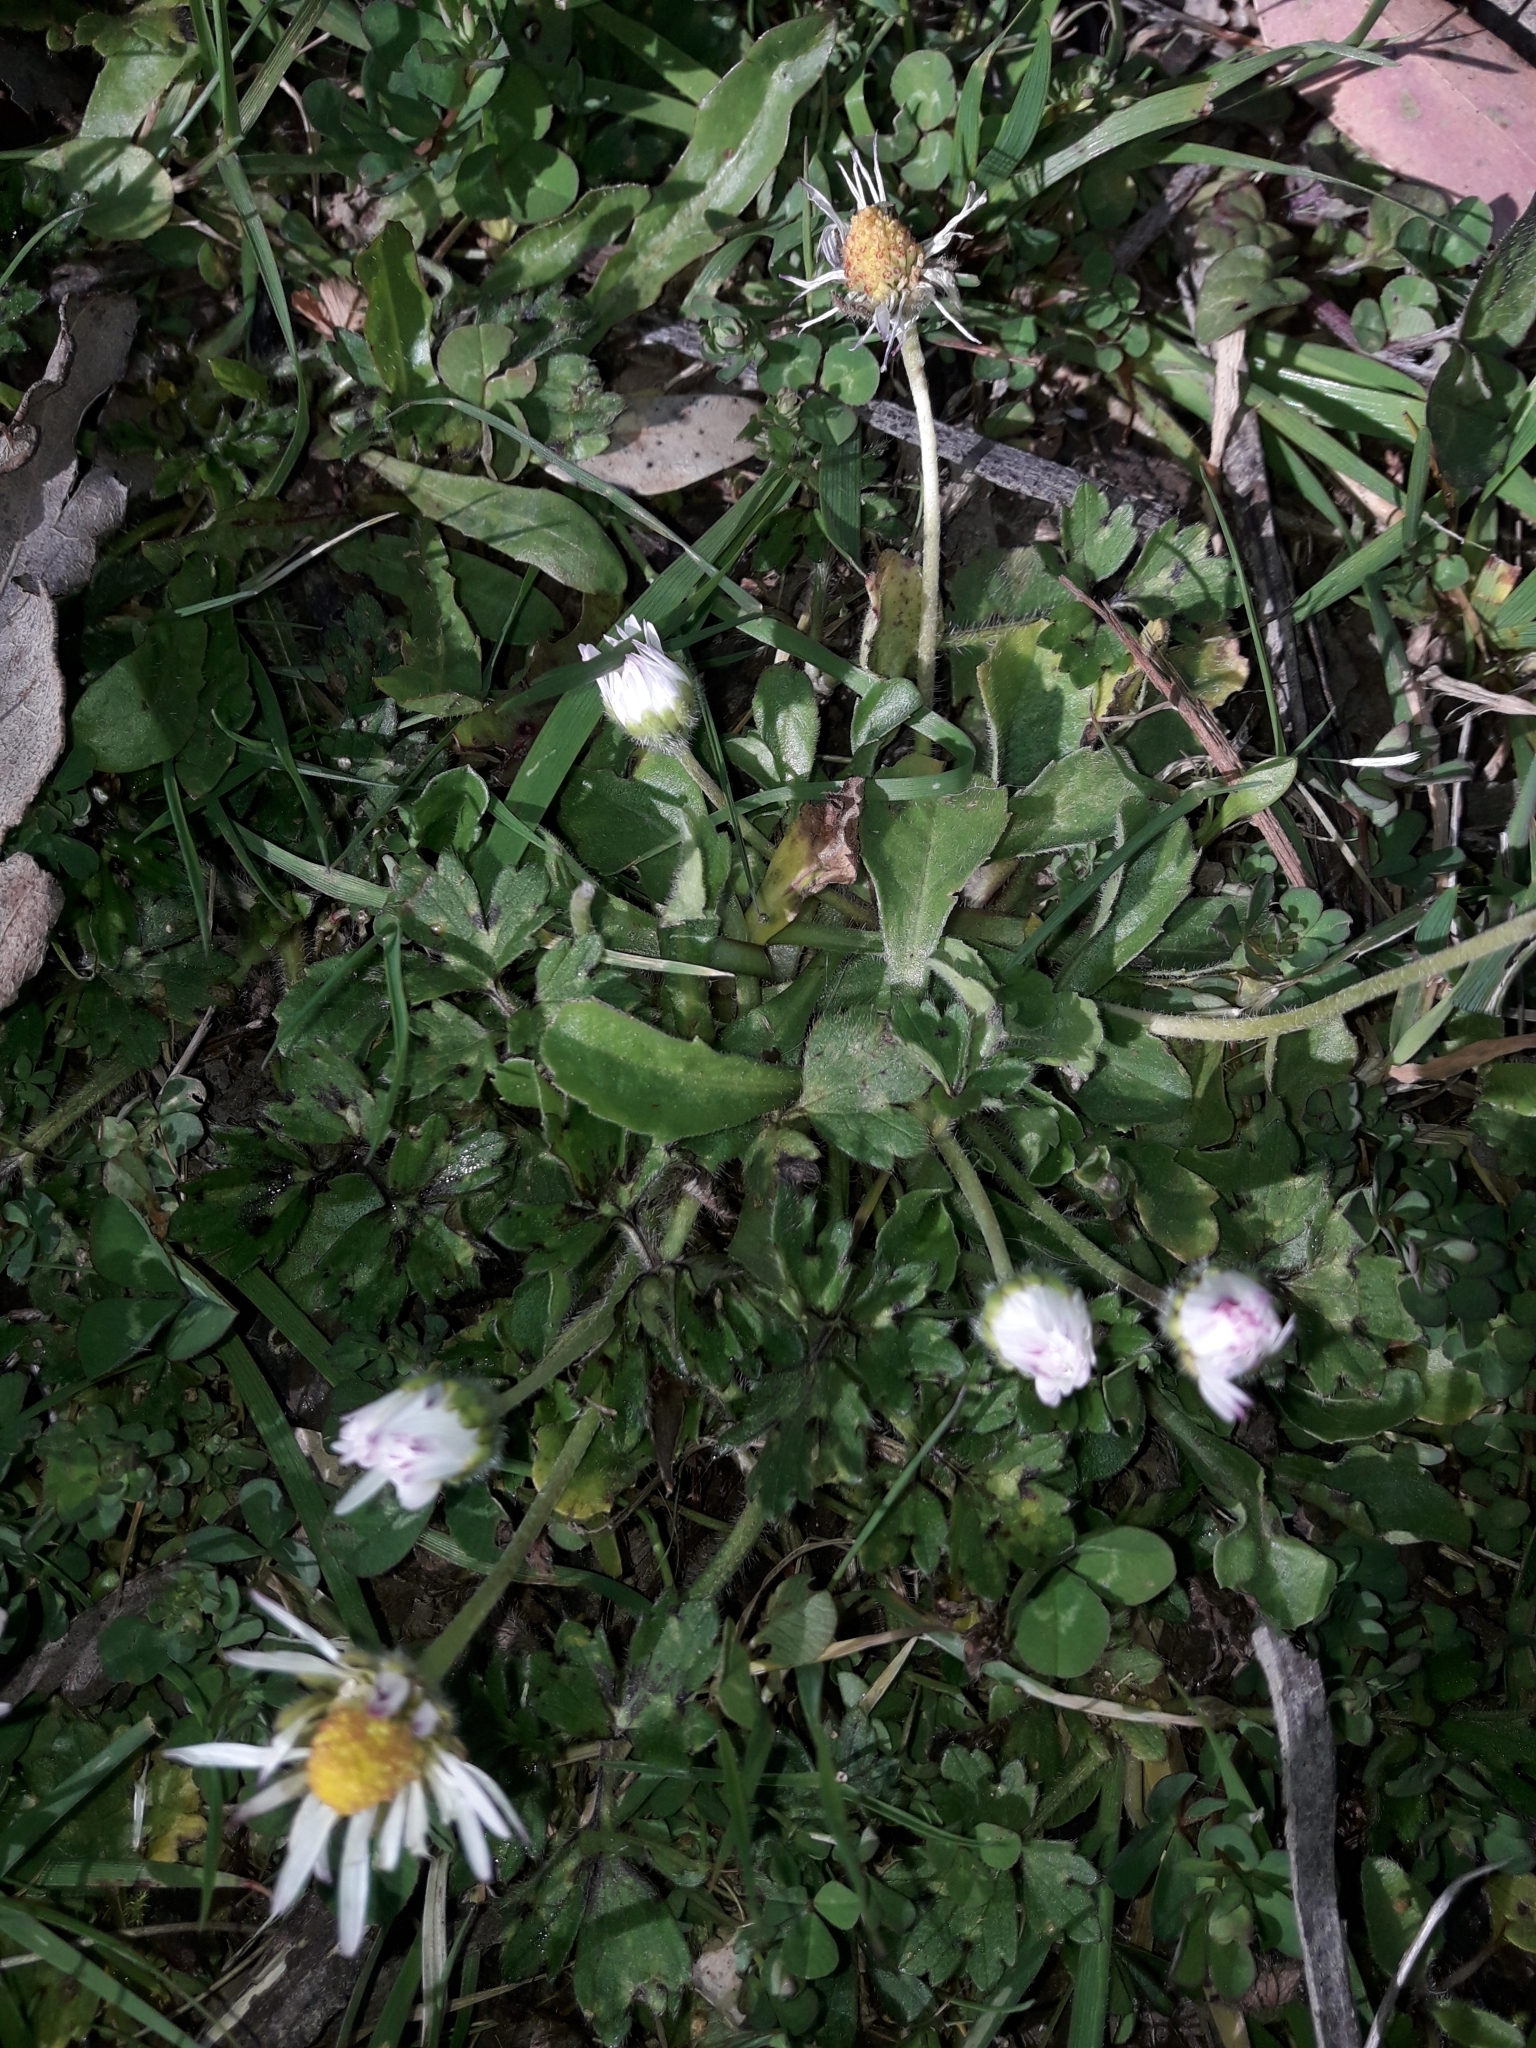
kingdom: Plantae
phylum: Tracheophyta
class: Magnoliopsida
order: Asterales
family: Asteraceae
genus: Bellis
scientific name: Bellis perennis
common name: Lawndaisy
